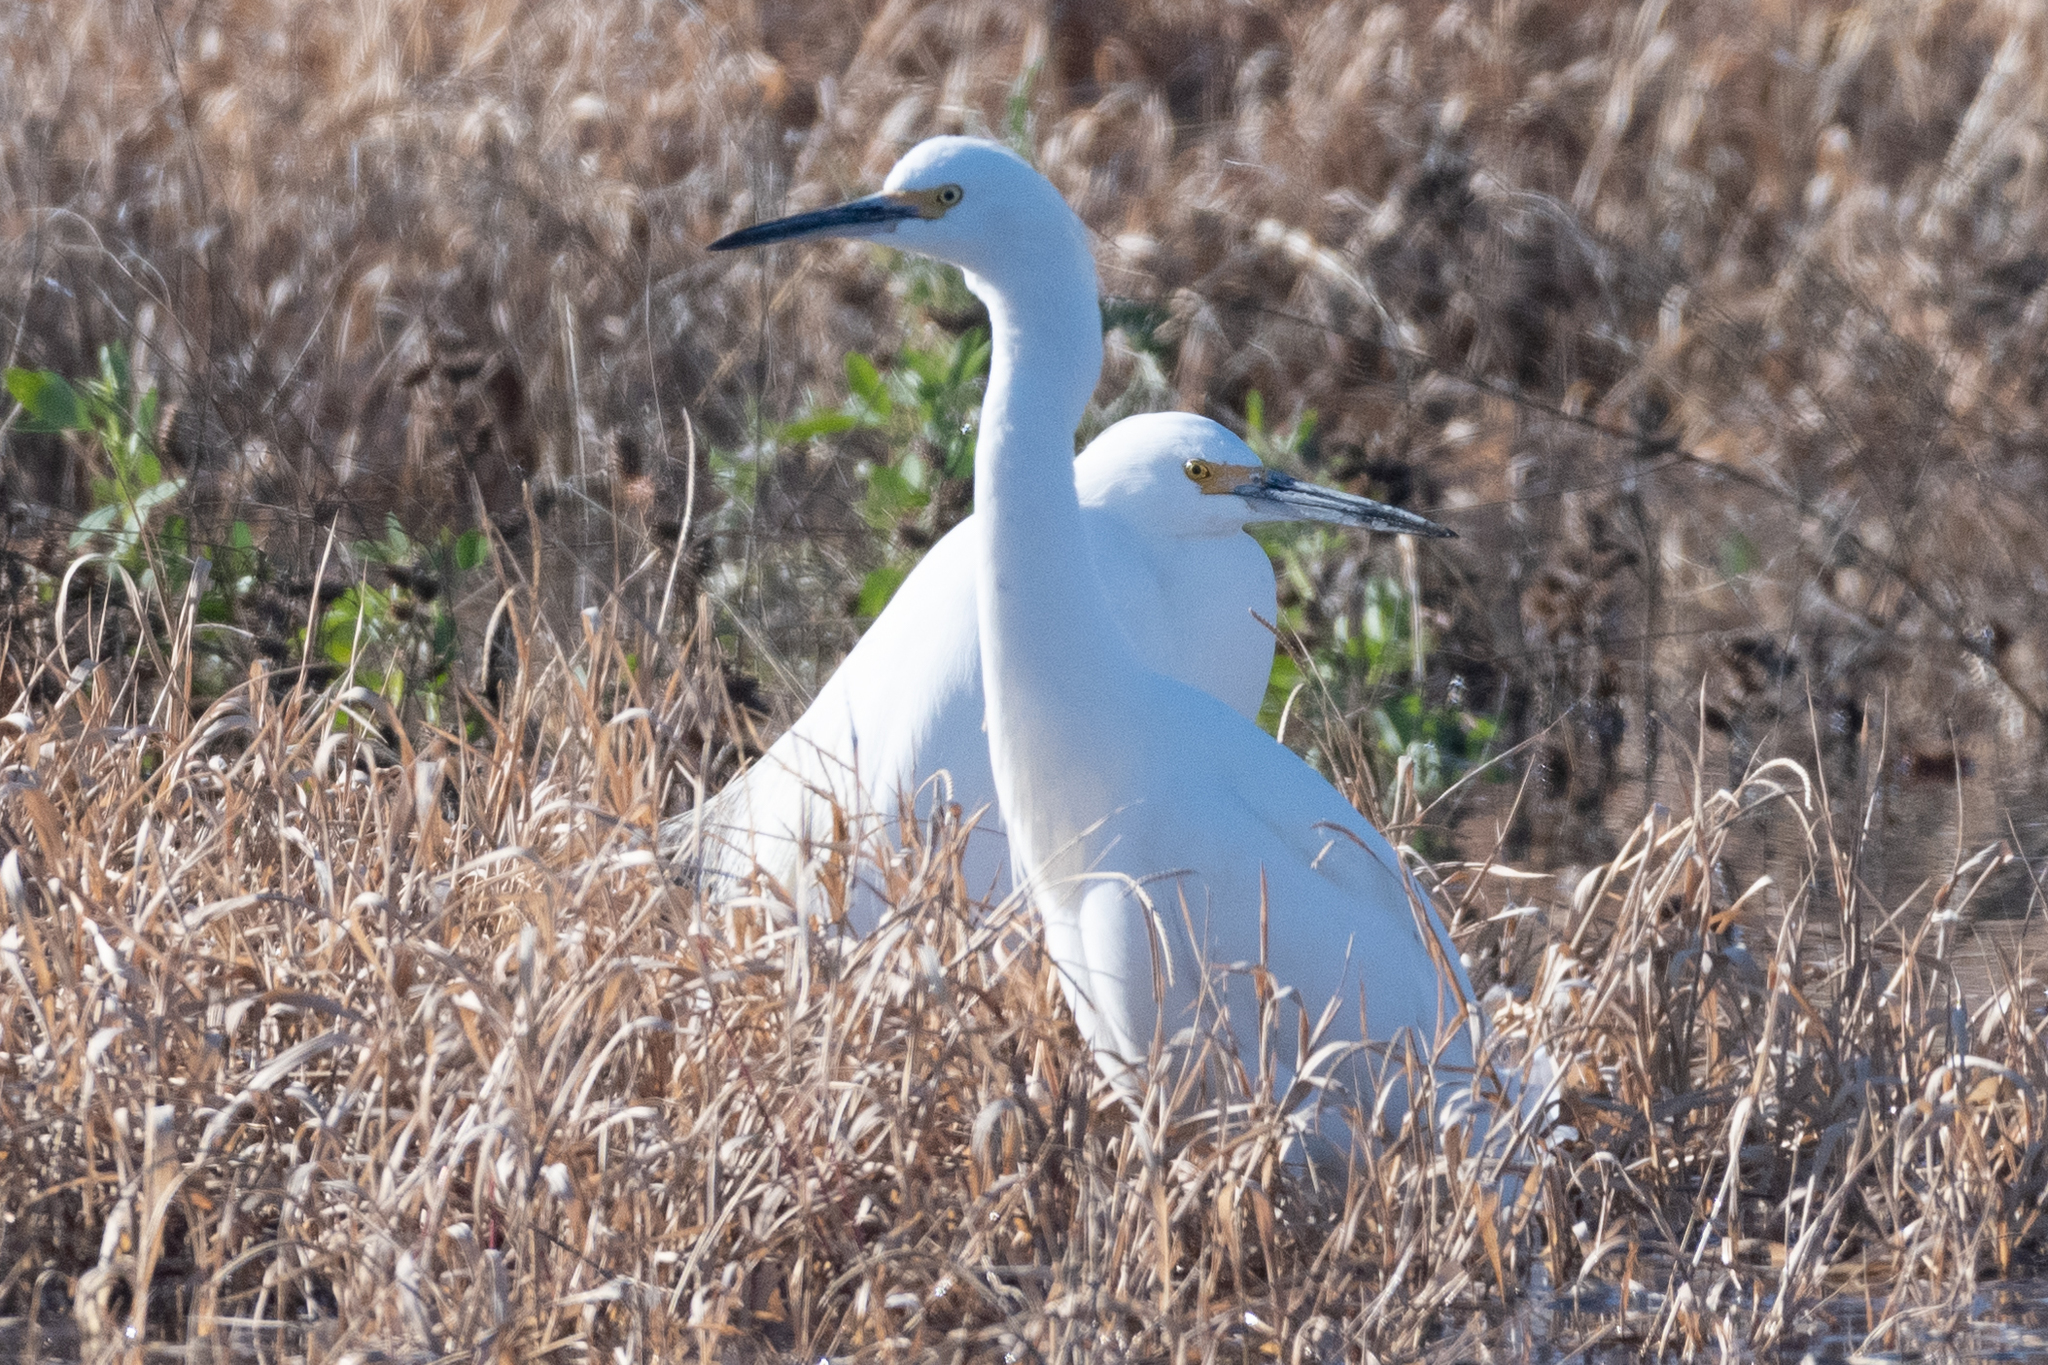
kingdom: Animalia
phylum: Chordata
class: Aves
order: Pelecaniformes
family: Ardeidae
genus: Egretta
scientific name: Egretta thula
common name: Snowy egret
